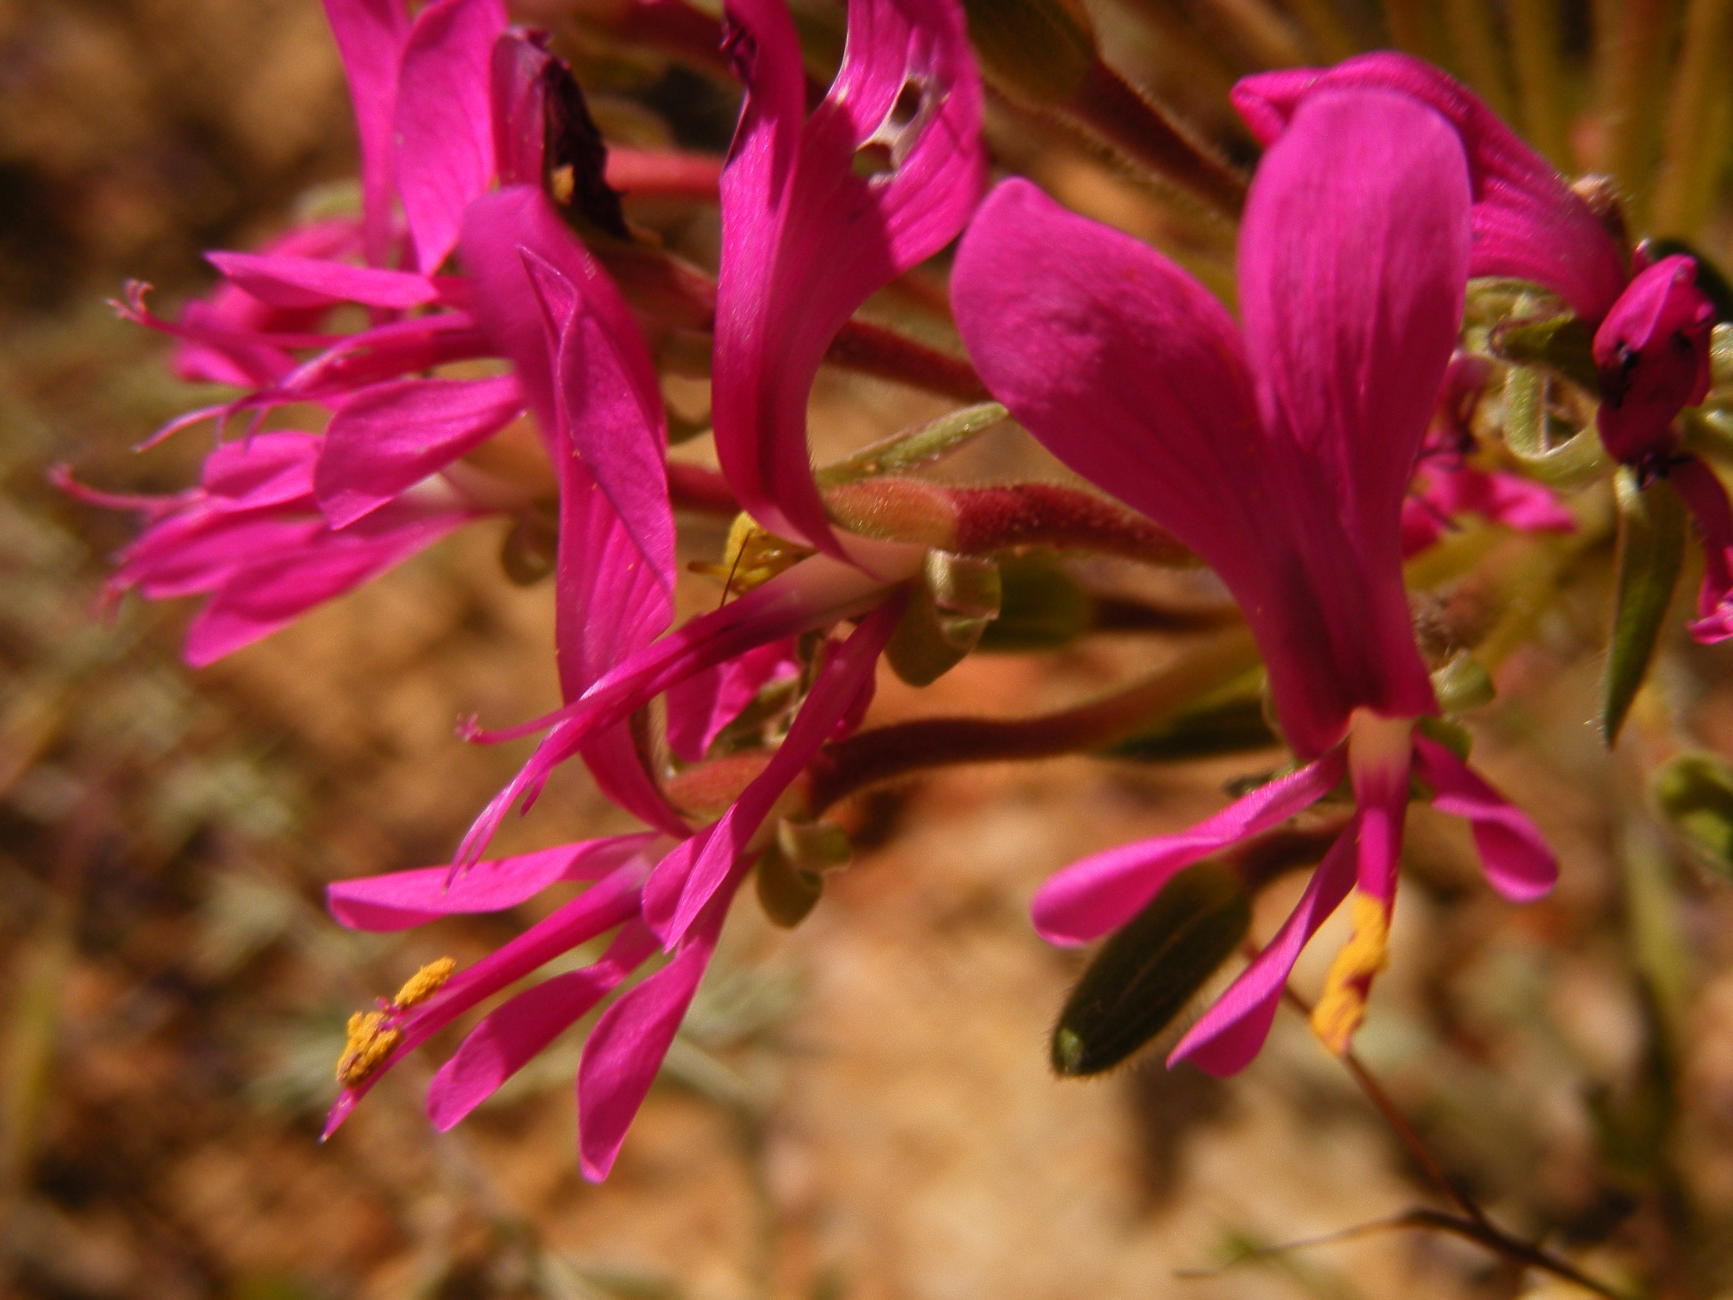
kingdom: Plantae
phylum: Tracheophyta
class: Magnoliopsida
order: Geraniales
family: Geraniaceae
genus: Pelargonium
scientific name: Pelargonium incrassatum
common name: Namaqualand beauty
